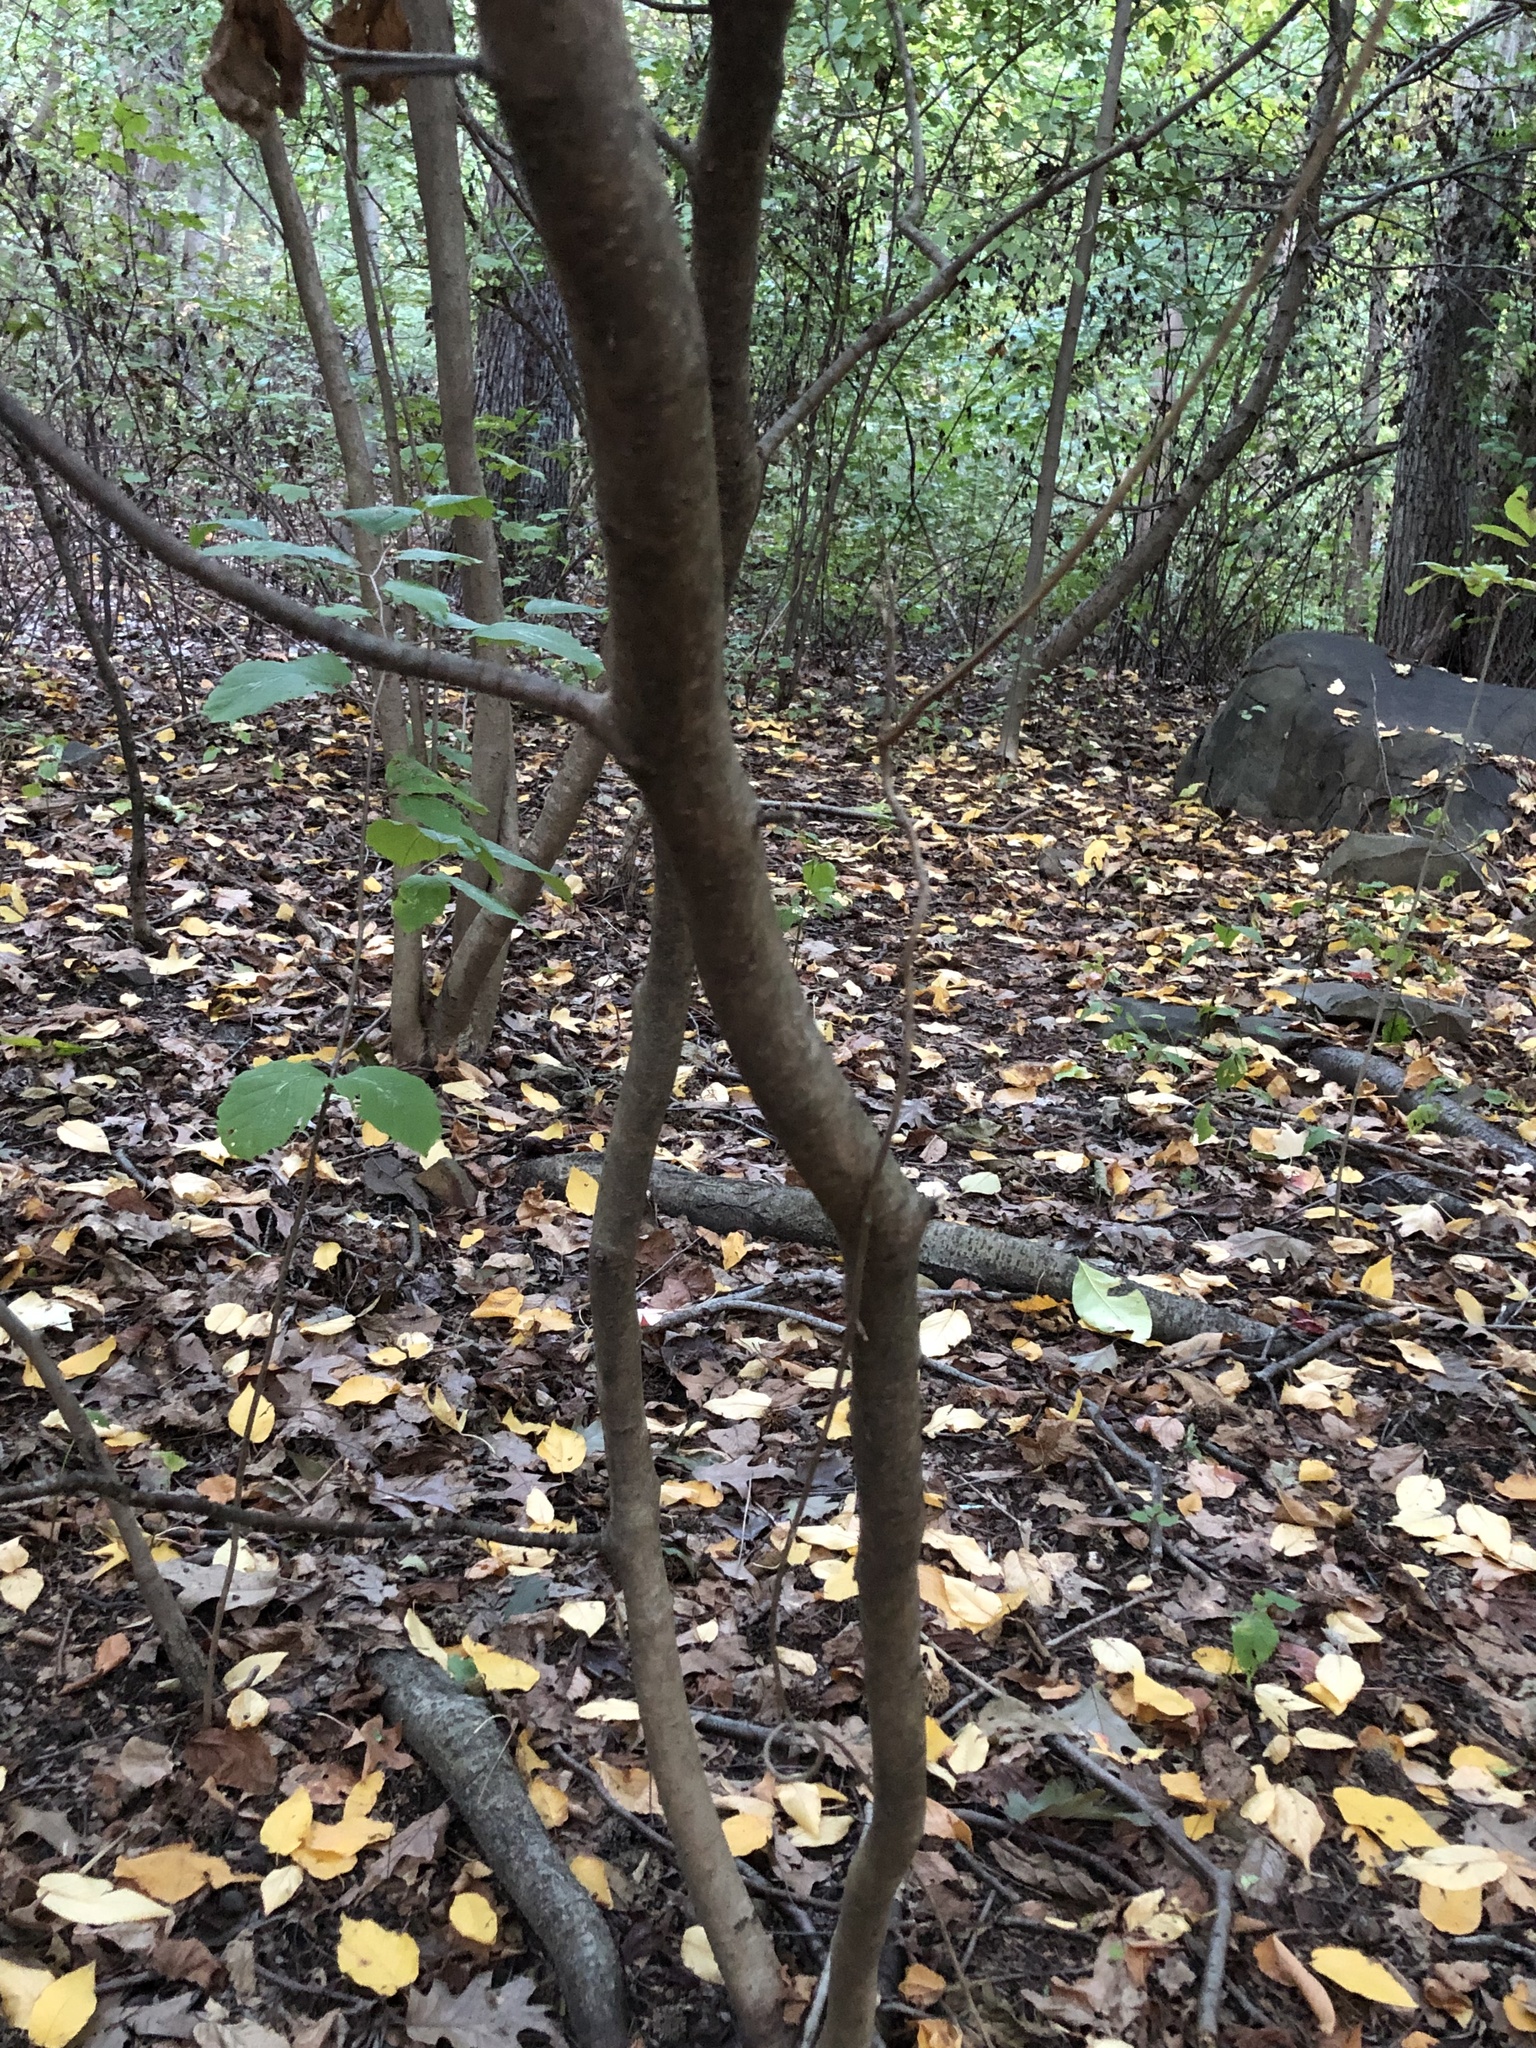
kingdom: Plantae
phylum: Tracheophyta
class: Magnoliopsida
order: Saxifragales
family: Hamamelidaceae
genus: Hamamelis
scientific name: Hamamelis virginiana
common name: Witch-hazel
